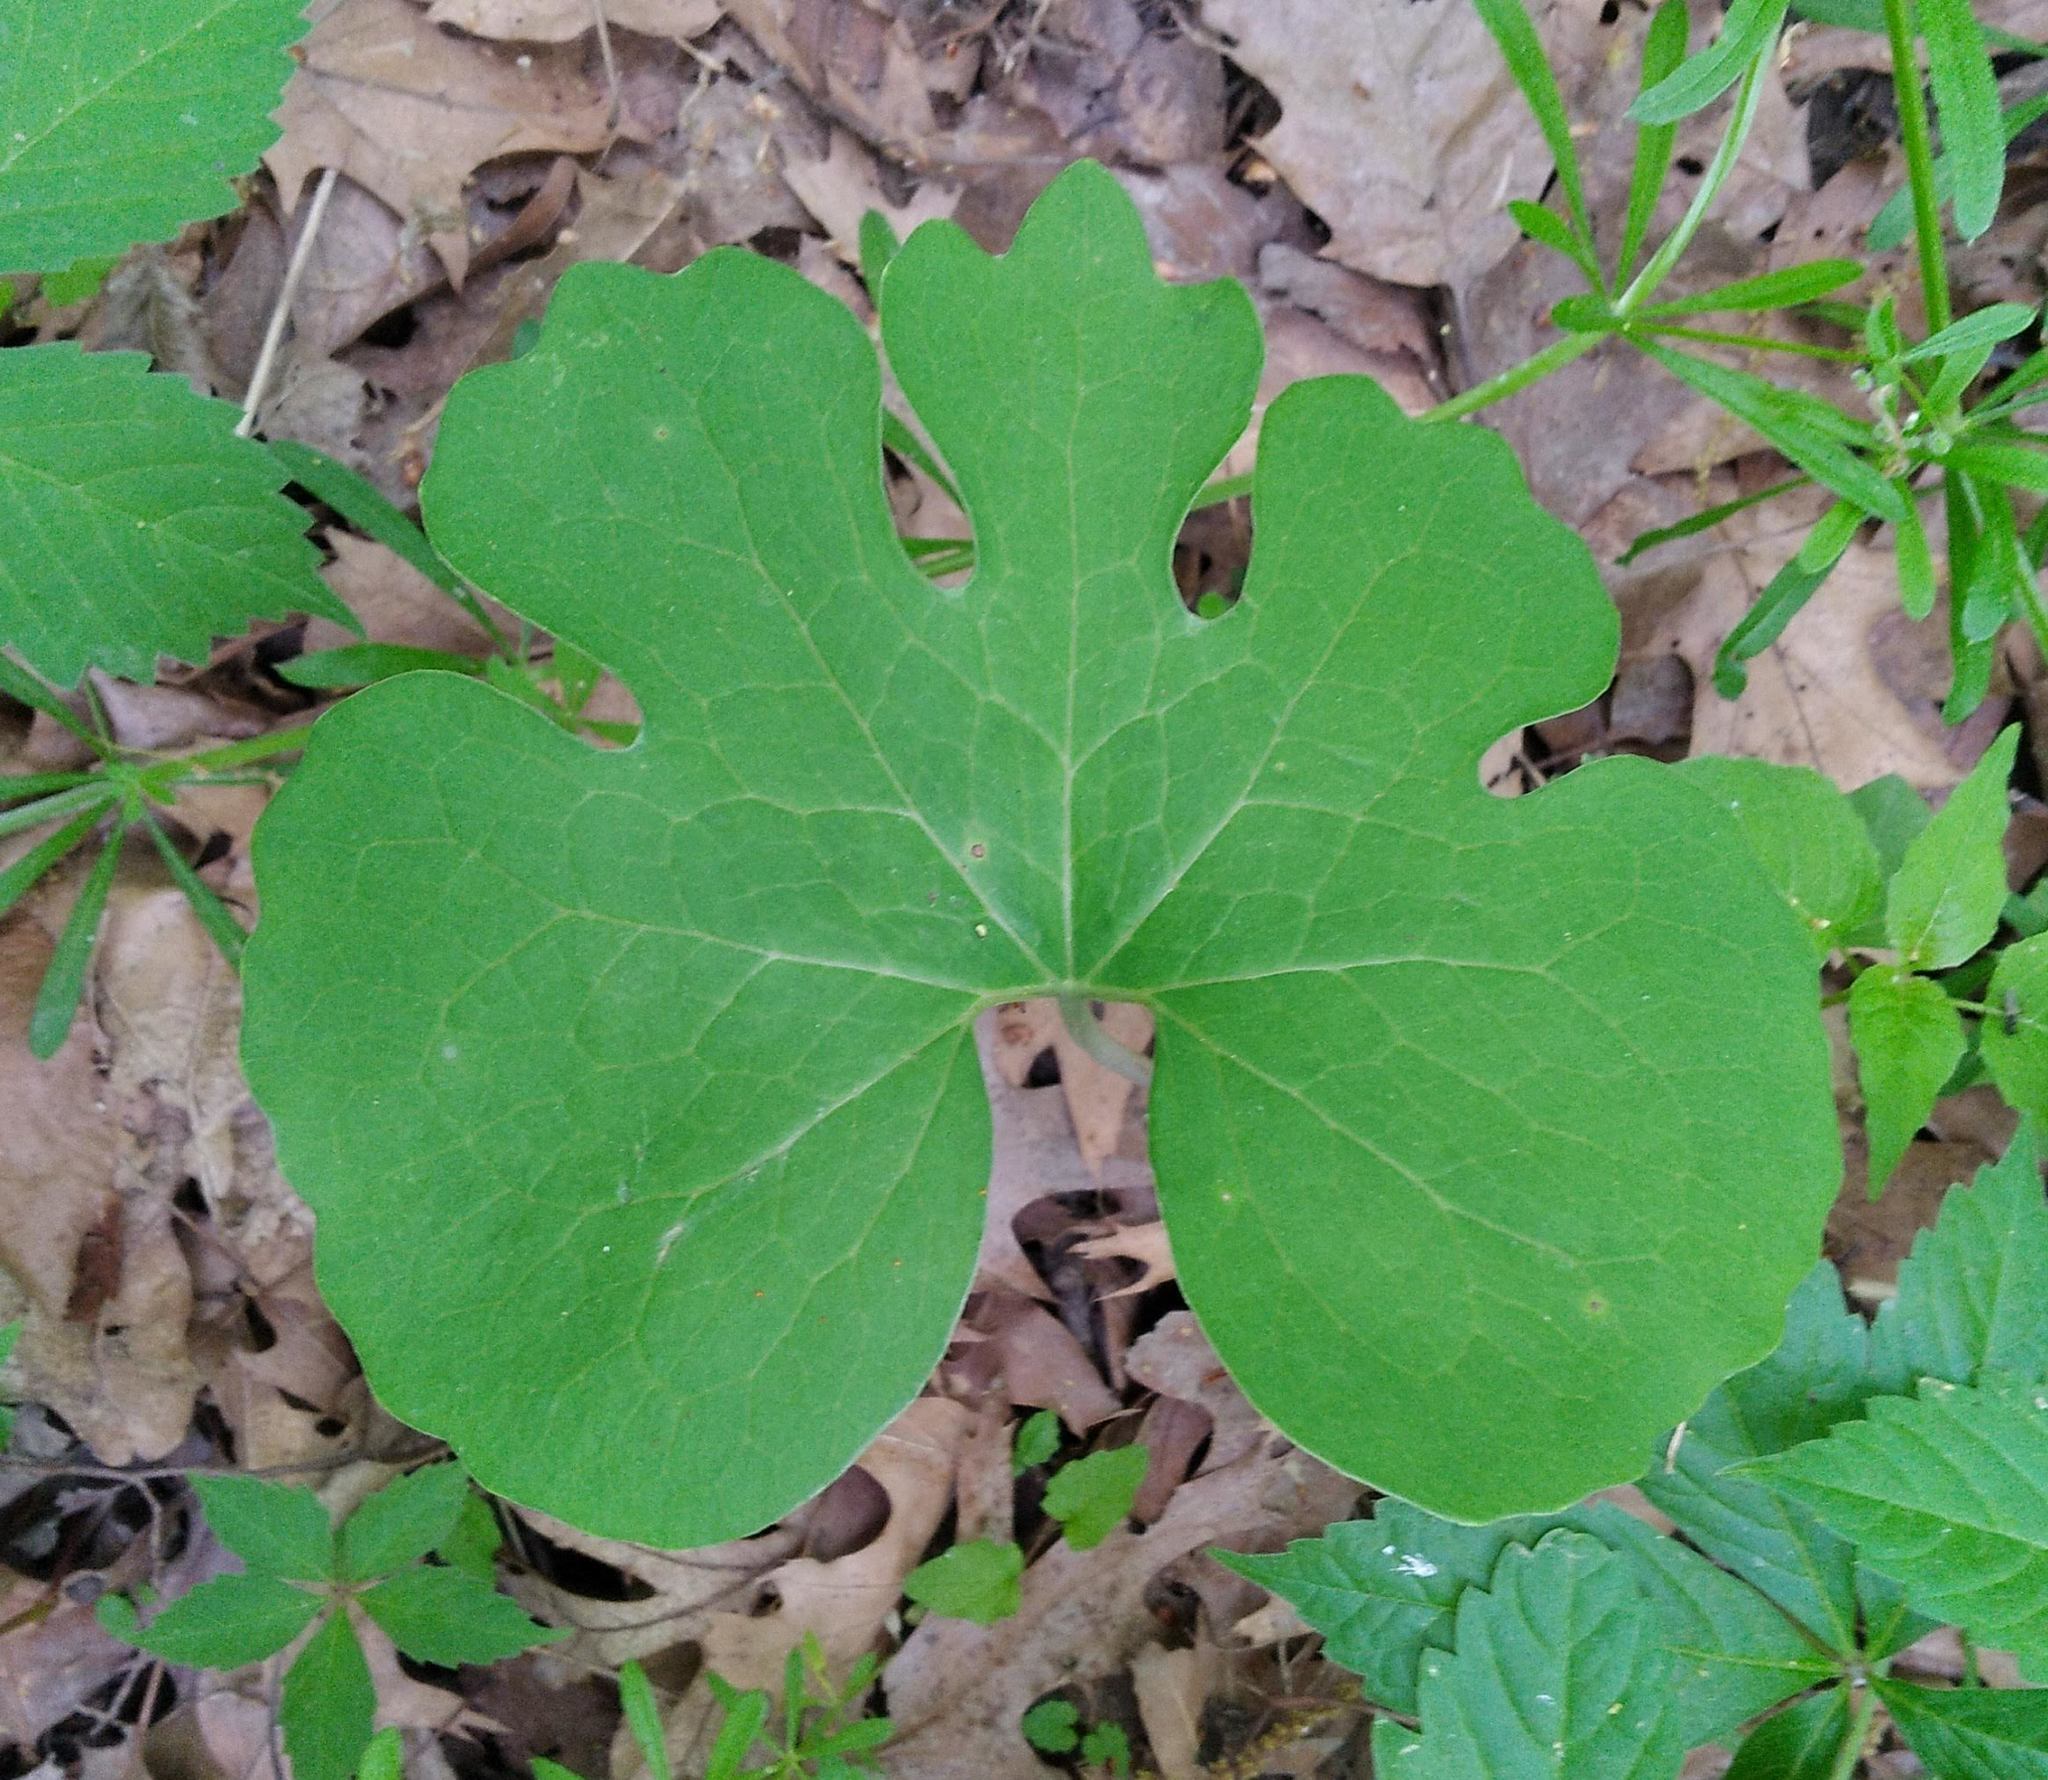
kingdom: Plantae
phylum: Tracheophyta
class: Magnoliopsida
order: Ranunculales
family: Papaveraceae
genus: Sanguinaria
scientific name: Sanguinaria canadensis
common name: Bloodroot
